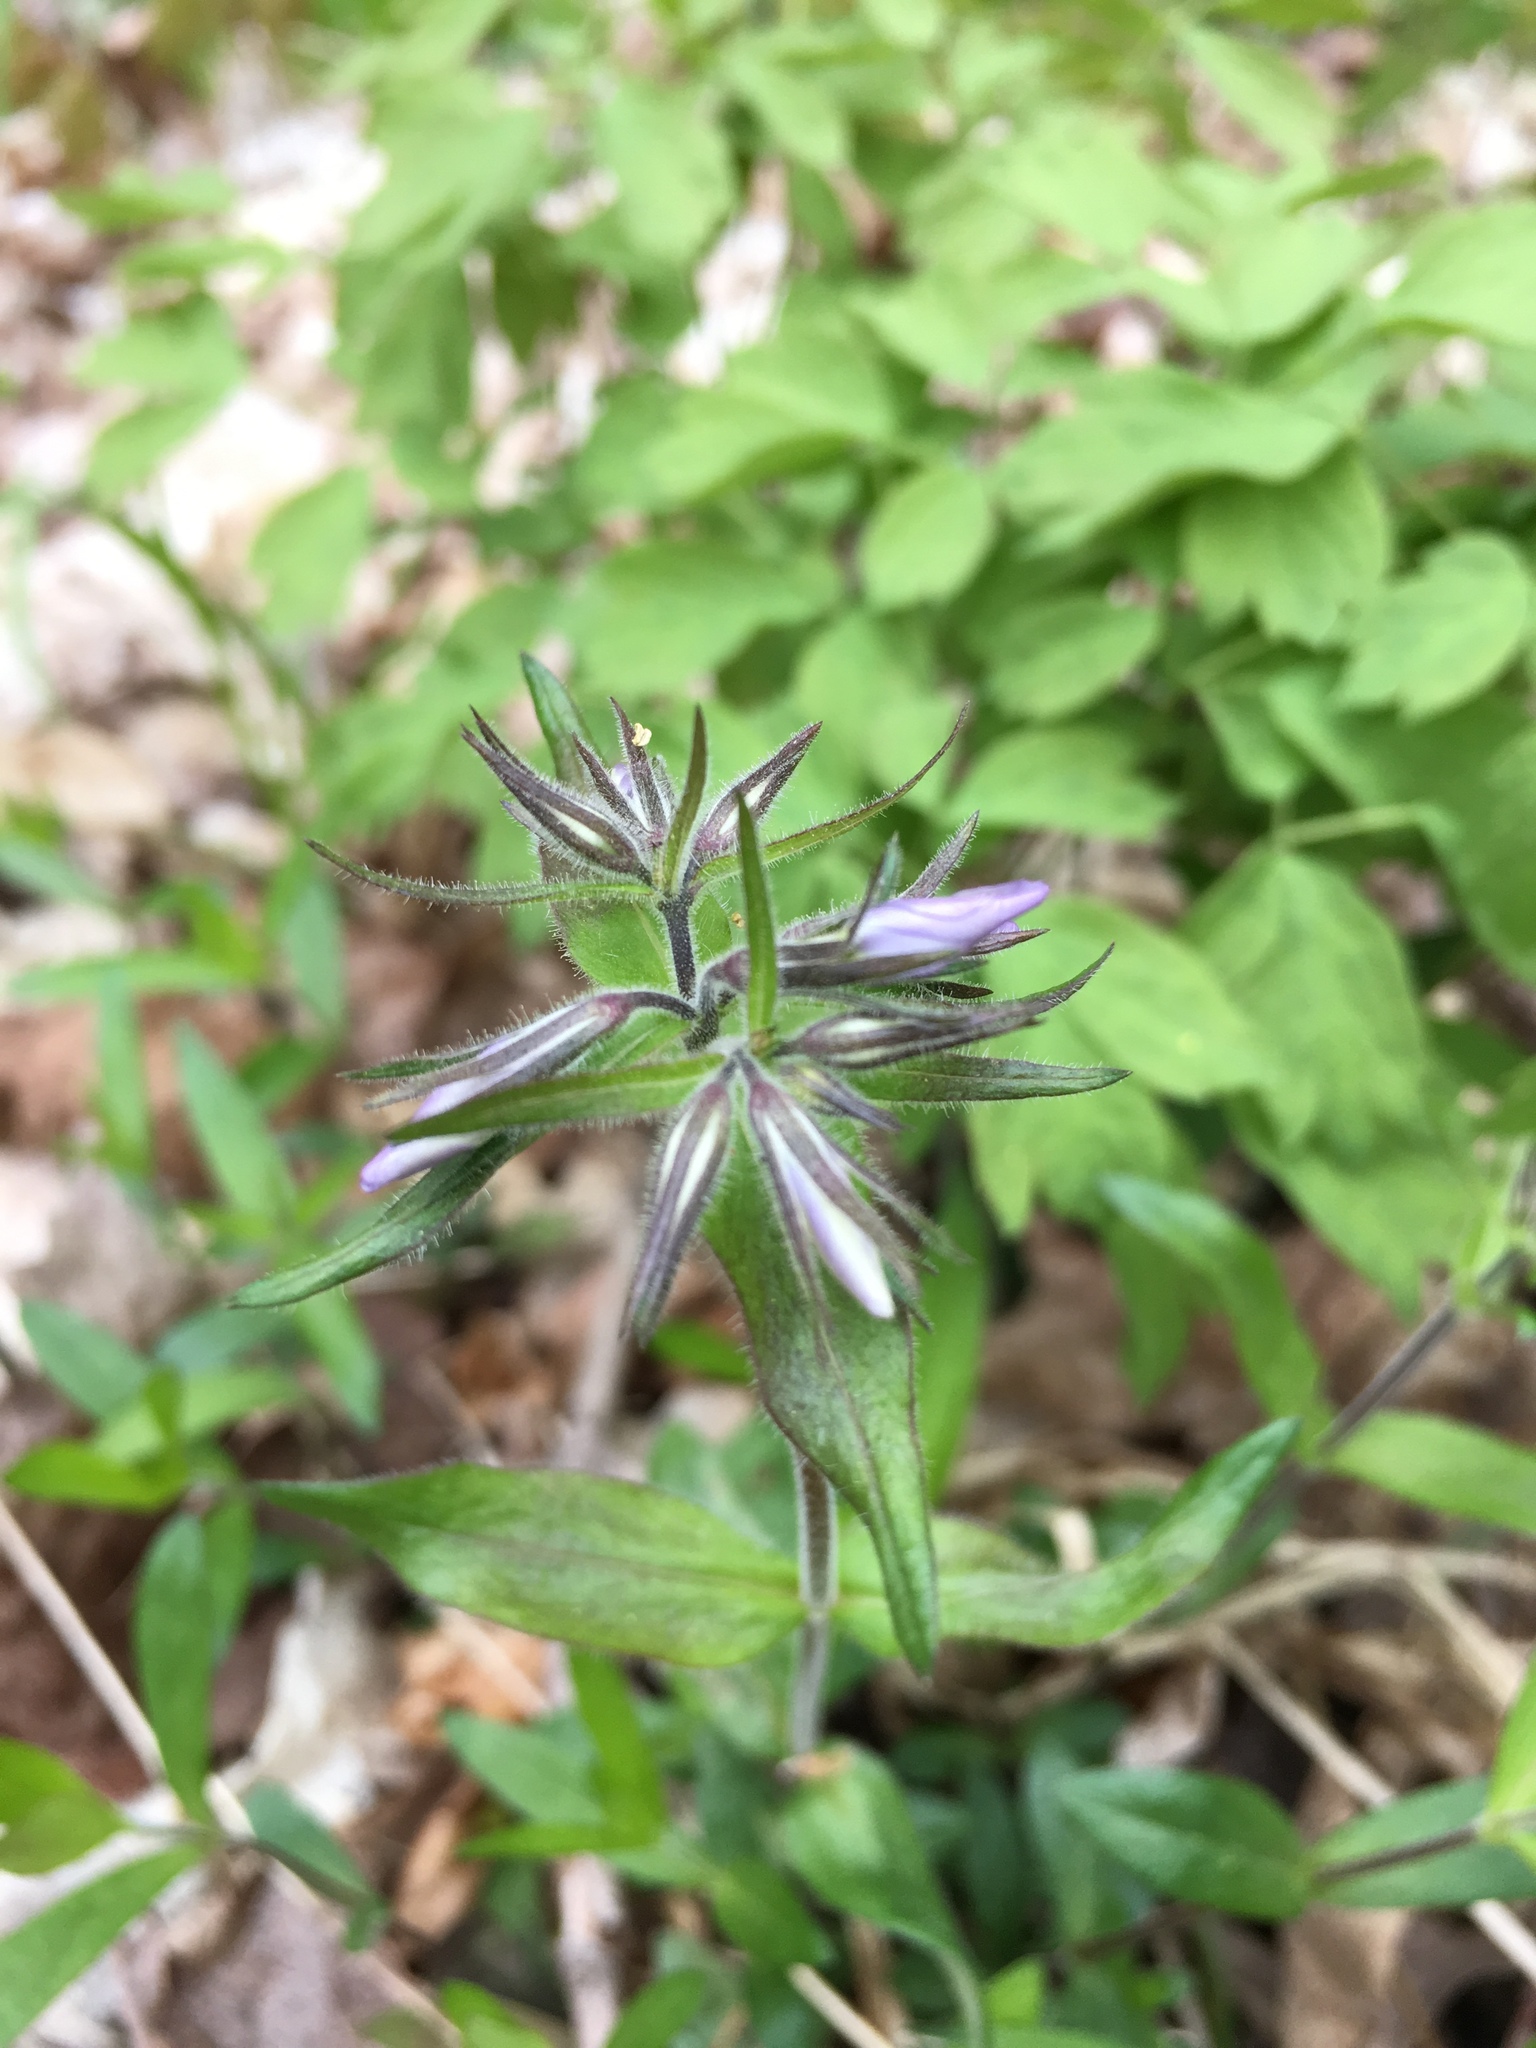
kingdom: Plantae
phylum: Tracheophyta
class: Magnoliopsida
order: Ericales
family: Polemoniaceae
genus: Phlox
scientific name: Phlox divaricata
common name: Blue phlox
